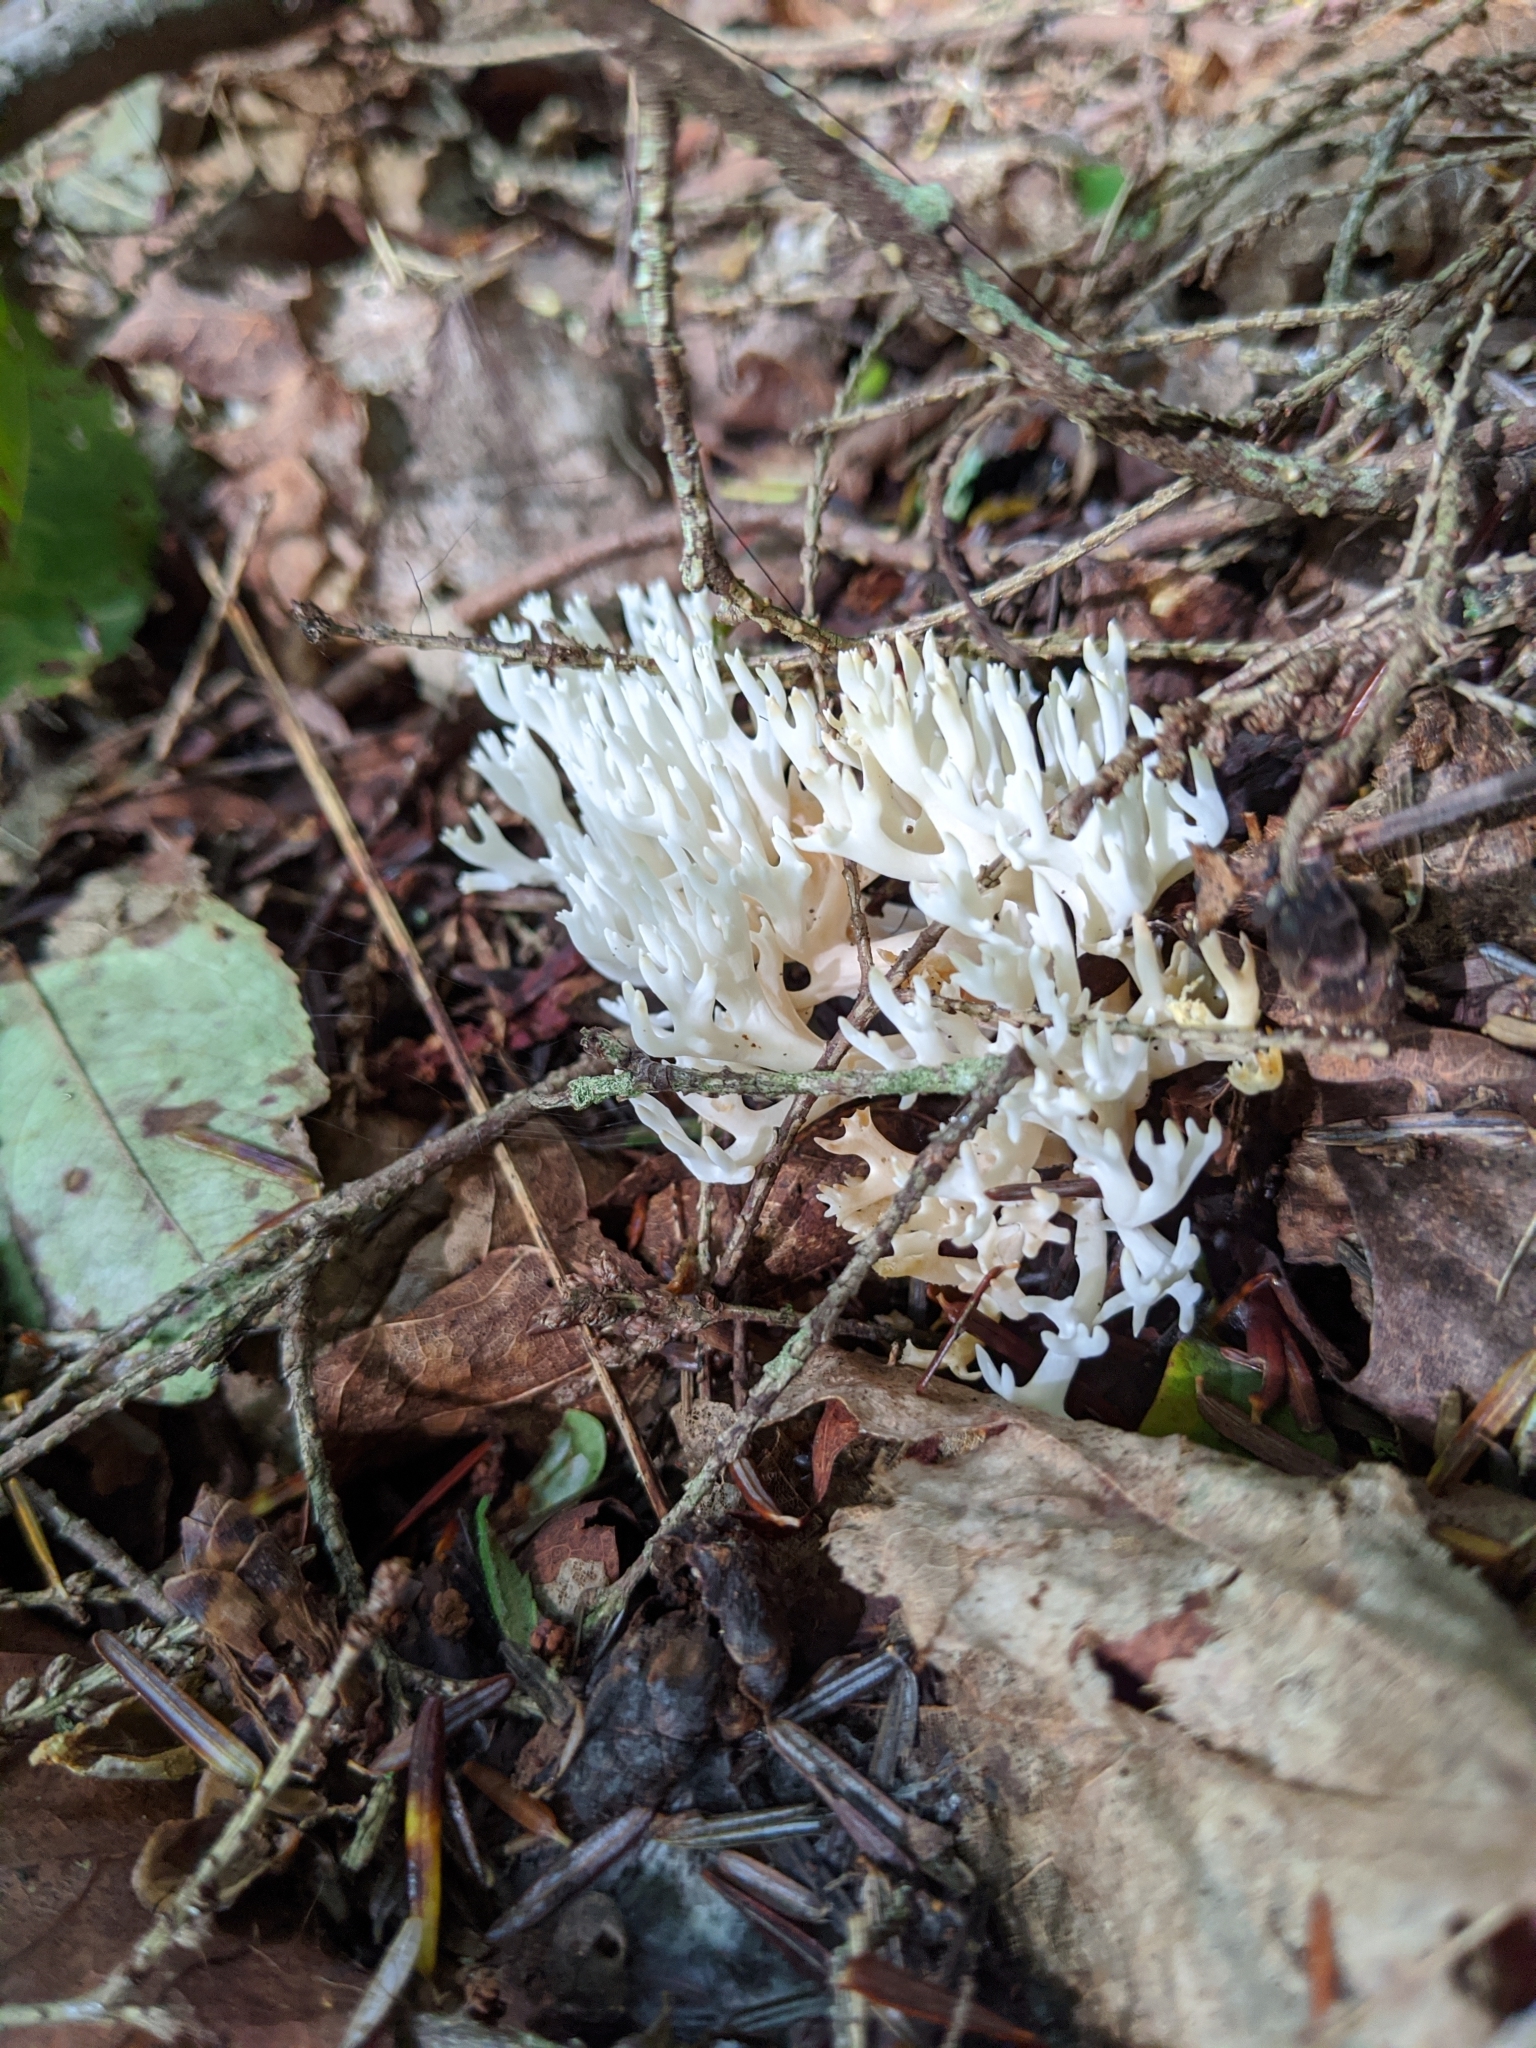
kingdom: Fungi
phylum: Basidiomycota
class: Agaricomycetes
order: Agaricales
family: Clavariaceae
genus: Ramariopsis
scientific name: Ramariopsis kunzei
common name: Ivory coral
